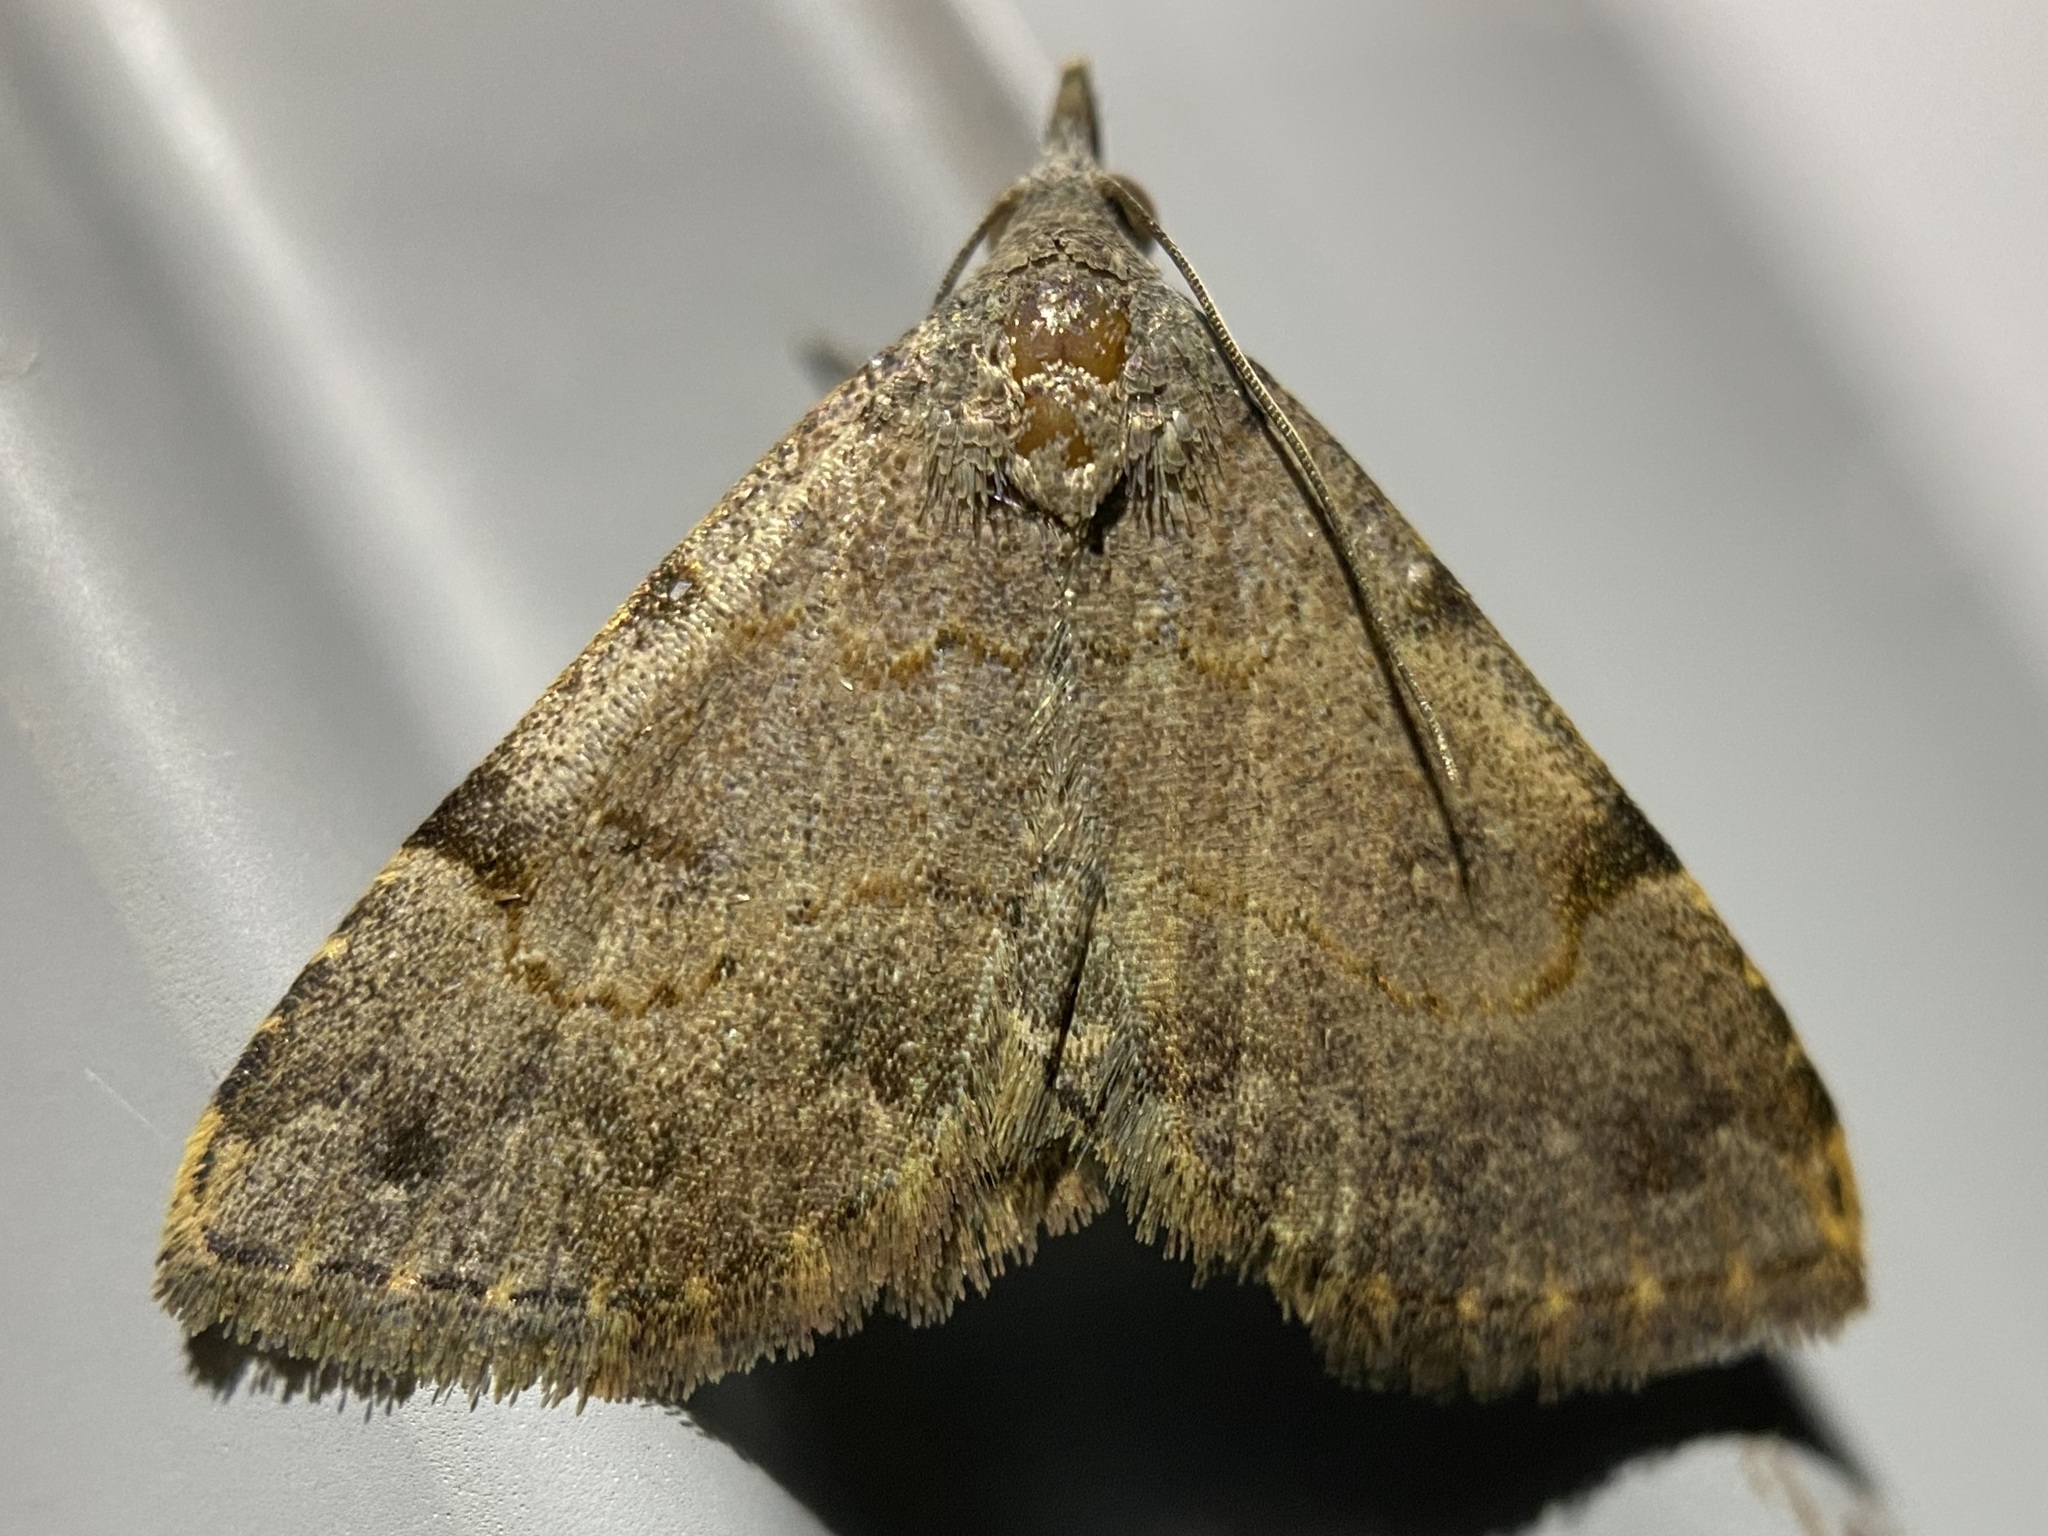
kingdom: Animalia
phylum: Arthropoda
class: Insecta
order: Lepidoptera
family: Erebidae
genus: Nychioptera
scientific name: Nychioptera accola
